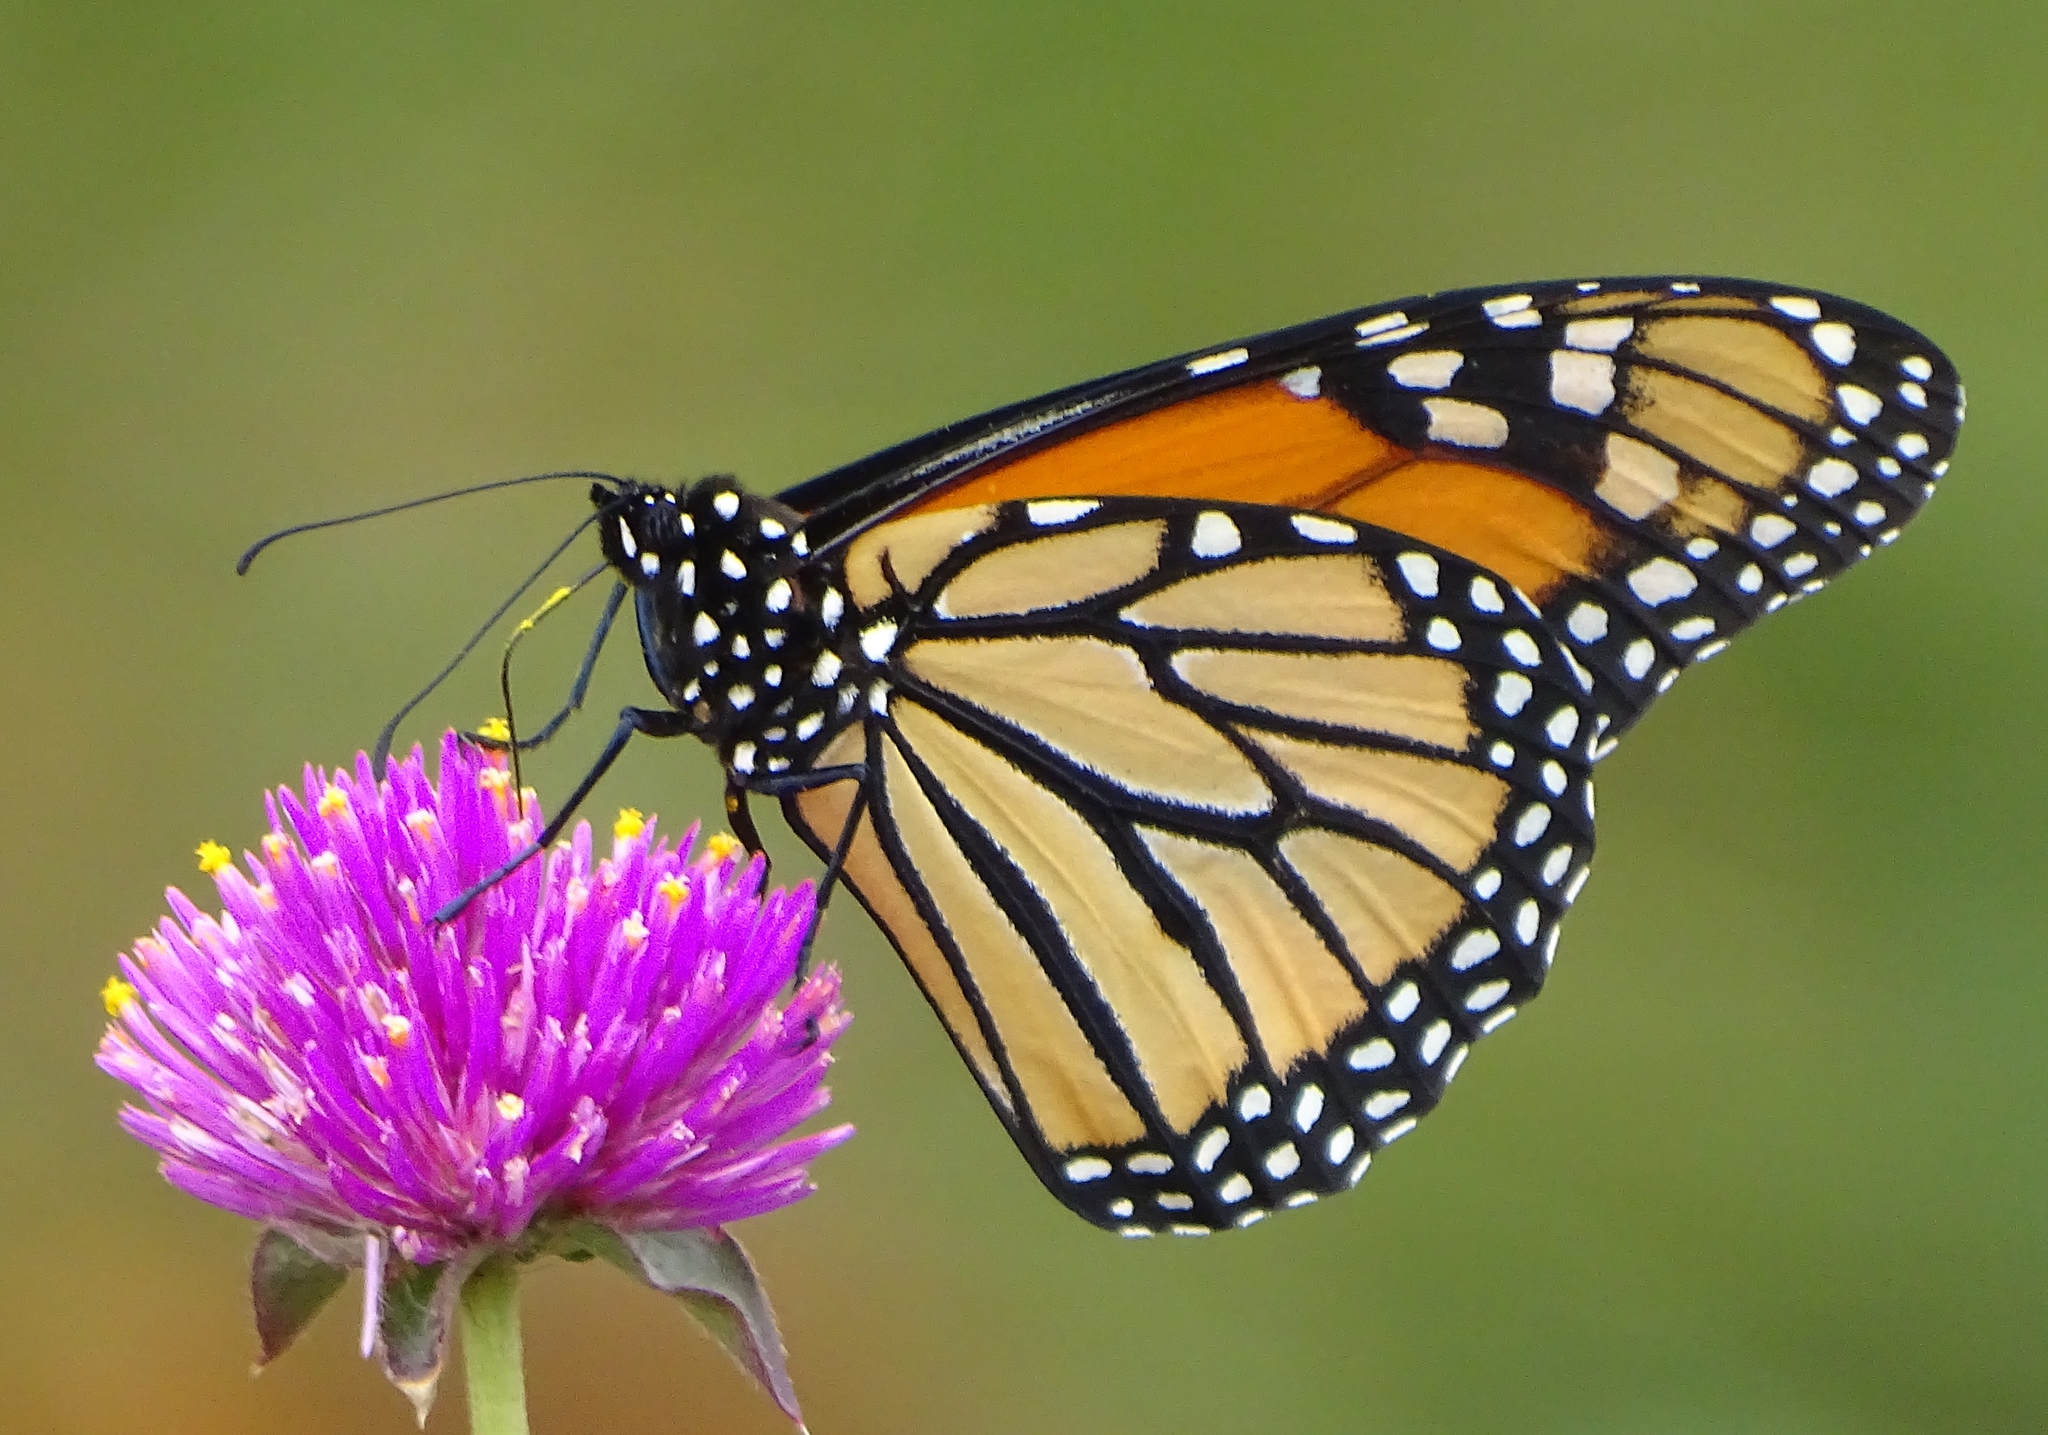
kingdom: Animalia
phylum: Arthropoda
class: Insecta
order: Lepidoptera
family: Nymphalidae
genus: Danaus
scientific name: Danaus plexippus
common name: Monarch
